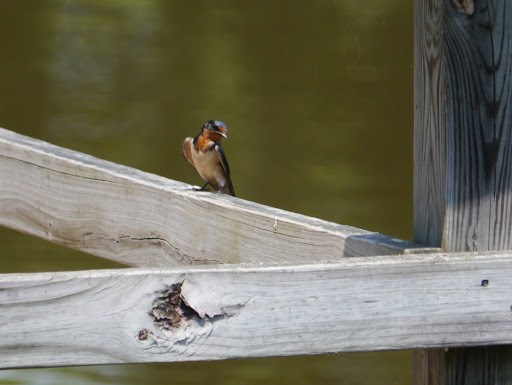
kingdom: Animalia
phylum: Chordata
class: Aves
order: Passeriformes
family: Hirundinidae
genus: Hirundo
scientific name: Hirundo rustica
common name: Barn swallow
